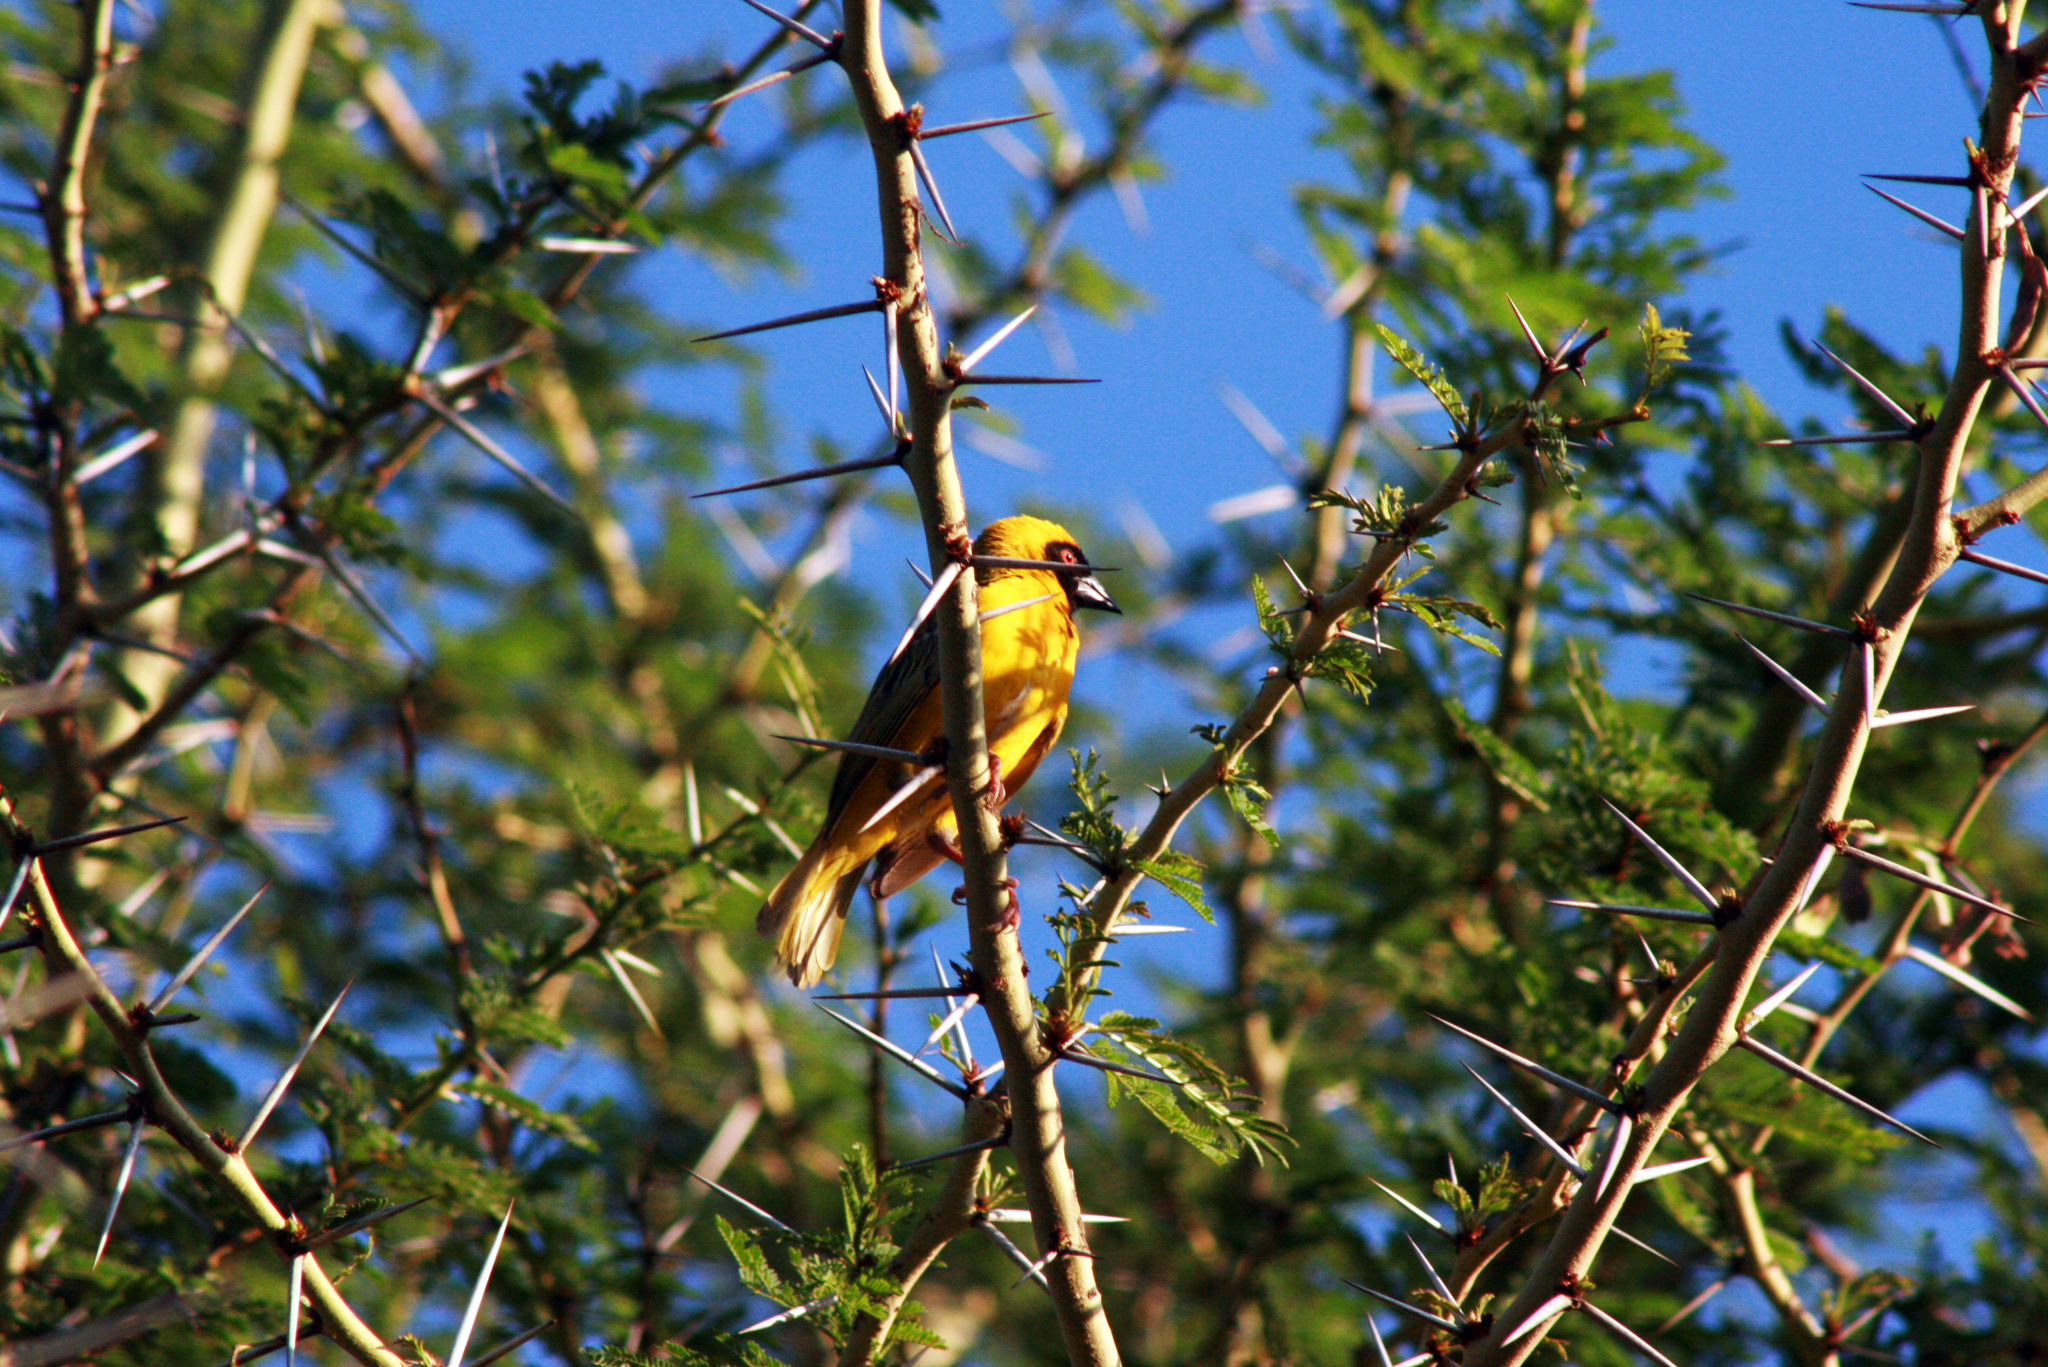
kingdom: Animalia
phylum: Chordata
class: Aves
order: Passeriformes
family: Ploceidae
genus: Ploceus
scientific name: Ploceus velatus
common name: Southern masked weaver
